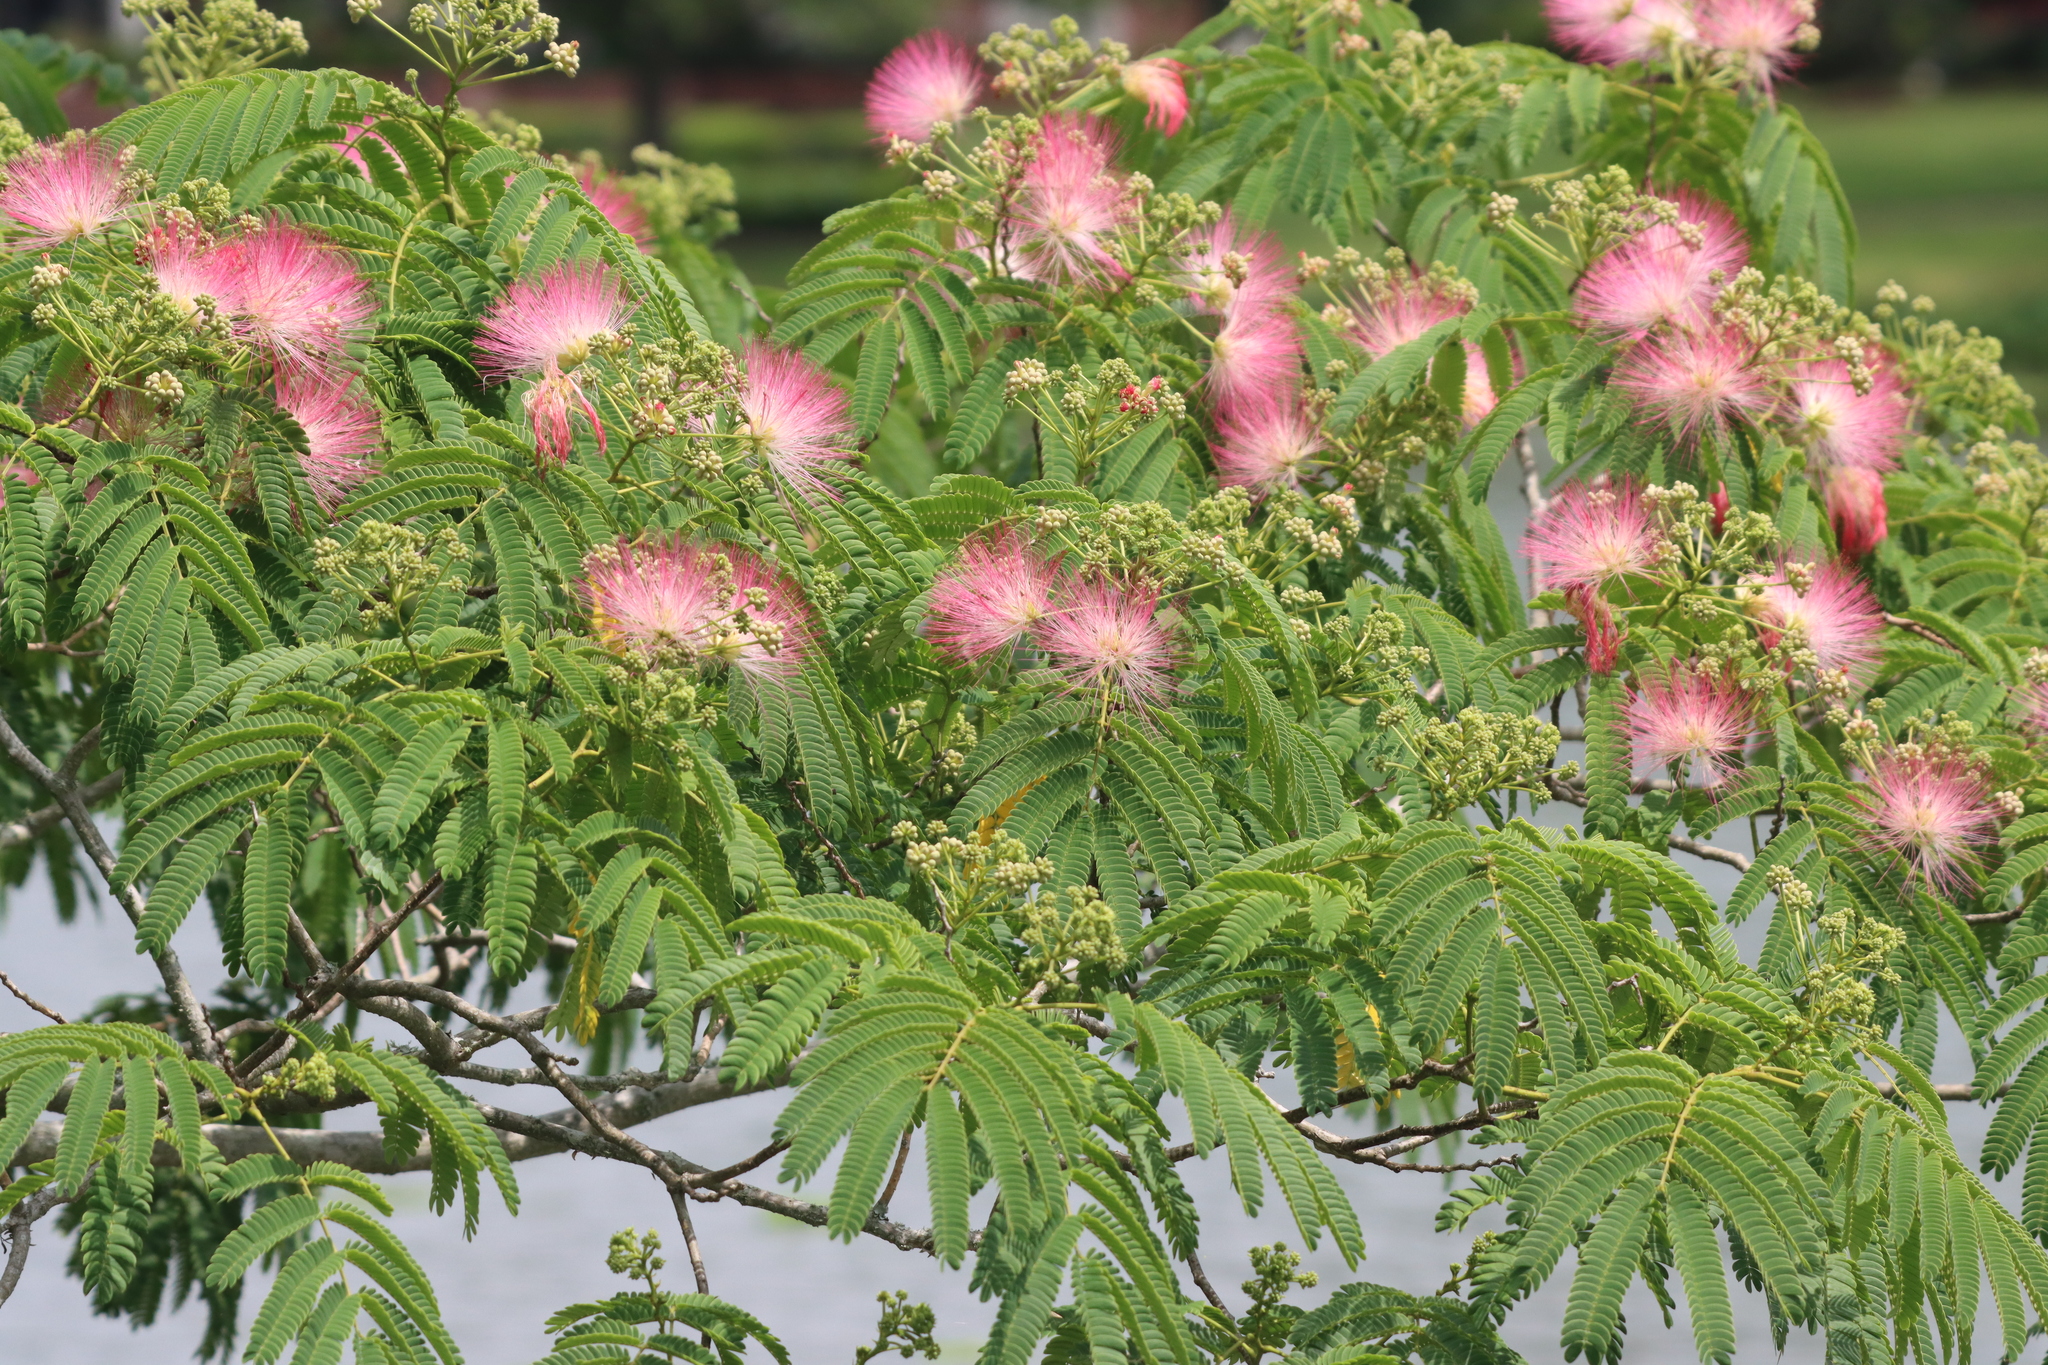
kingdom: Plantae
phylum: Tracheophyta
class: Magnoliopsida
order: Fabales
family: Fabaceae
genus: Albizia
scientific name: Albizia julibrissin
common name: Silktree
